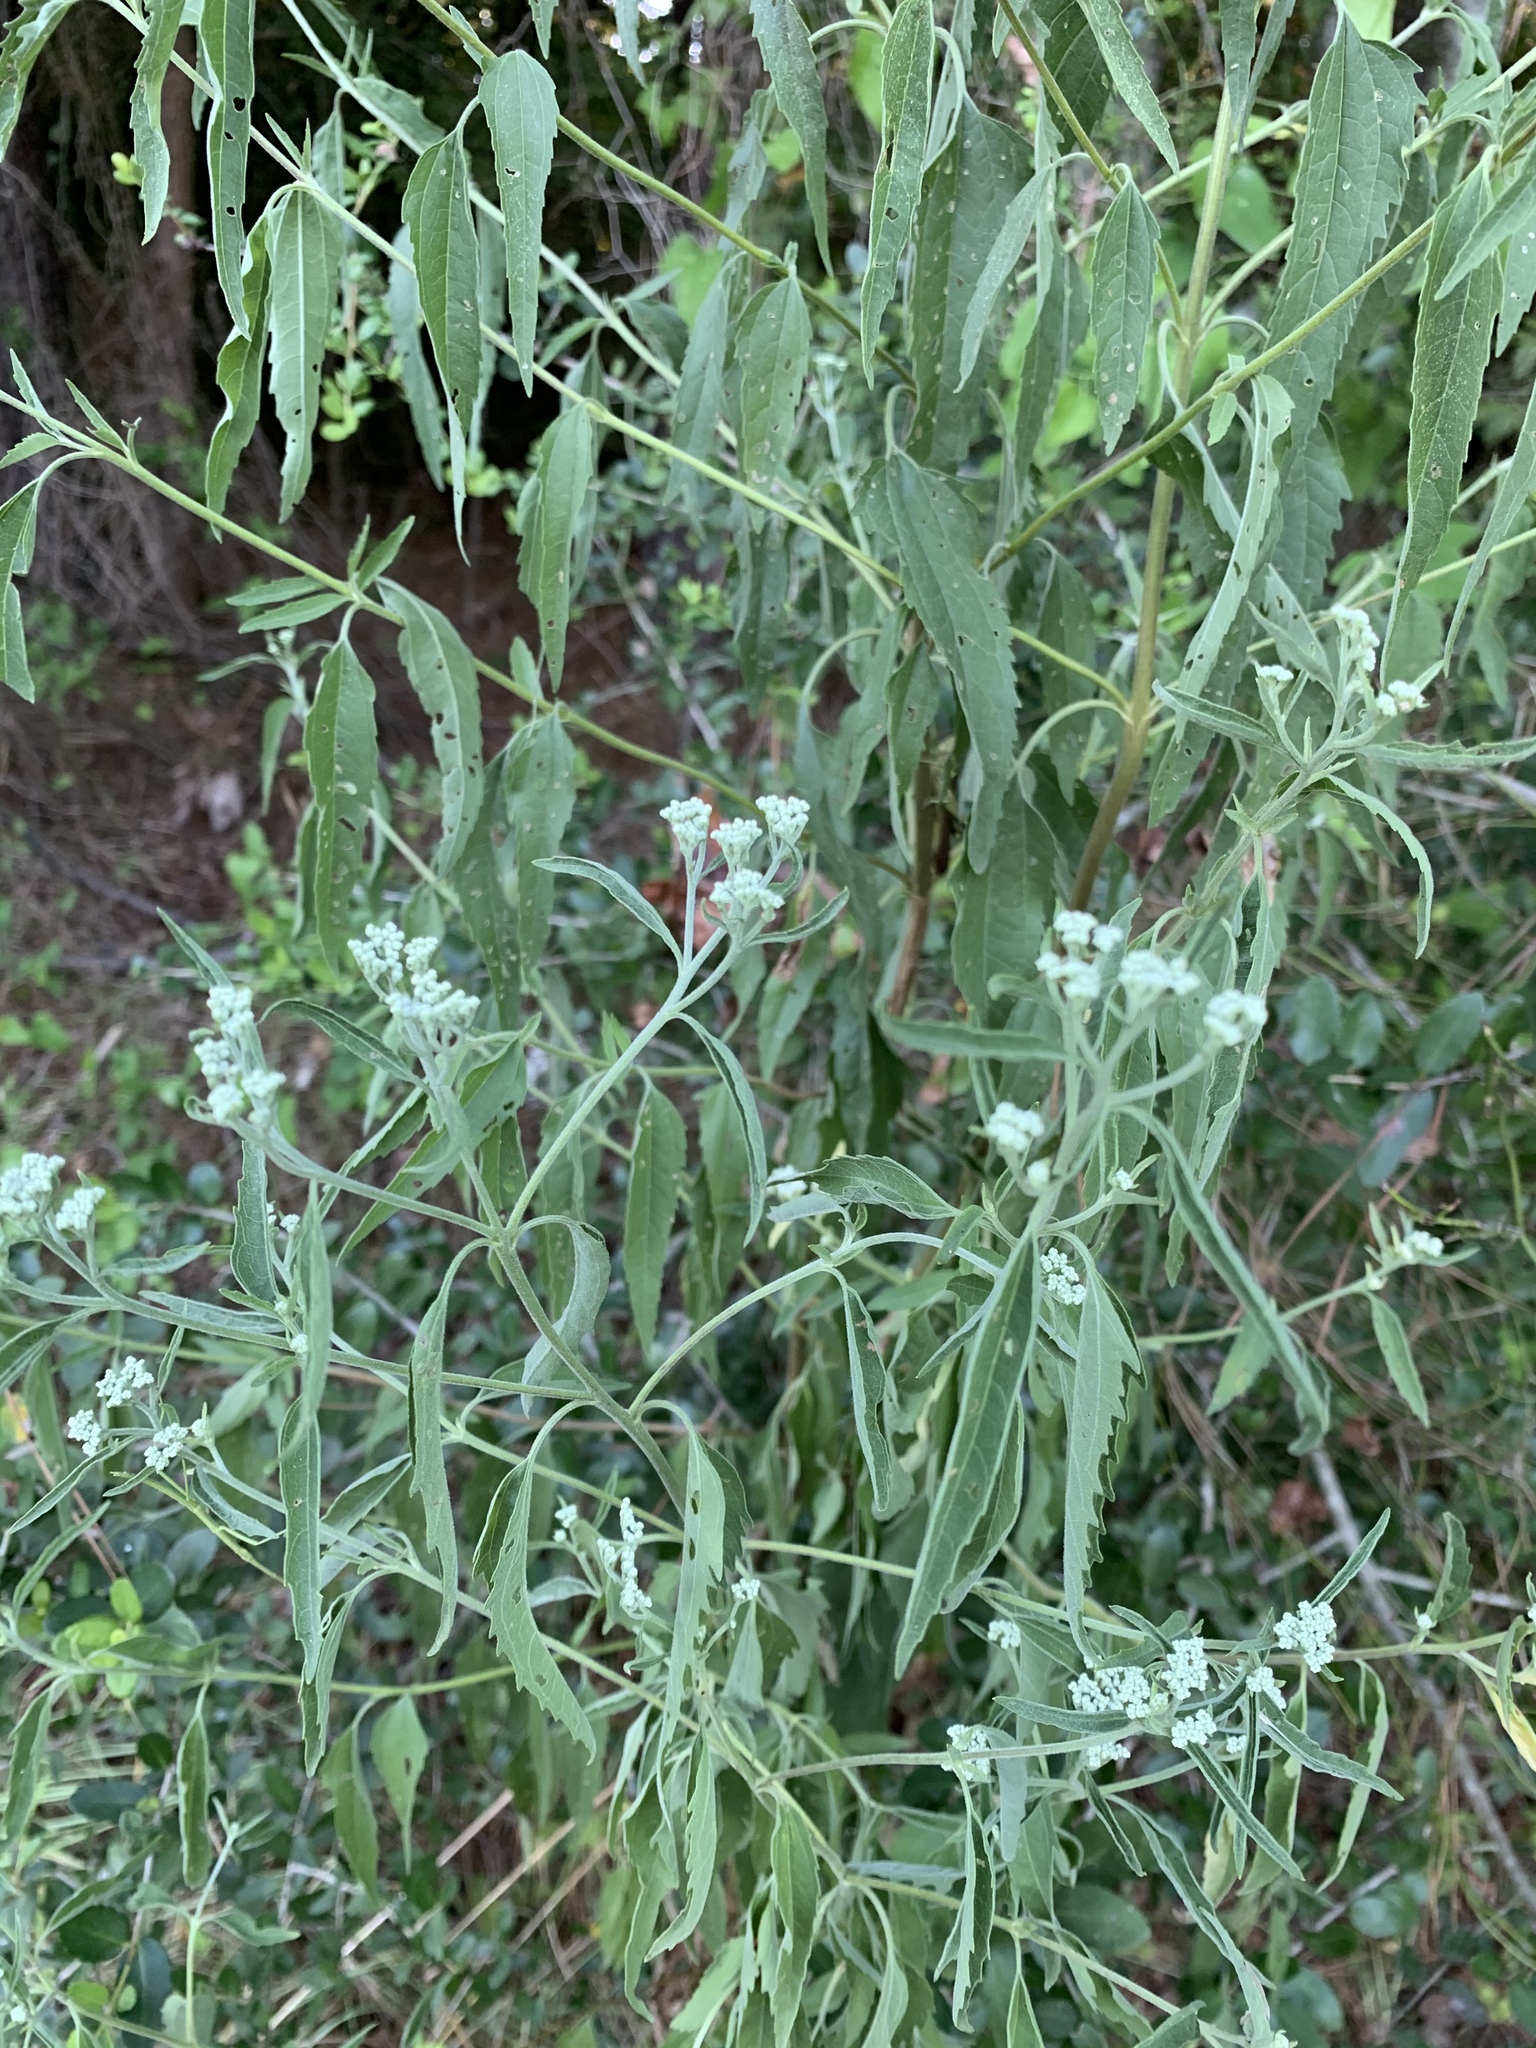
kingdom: Plantae
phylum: Tracheophyta
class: Magnoliopsida
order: Asterales
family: Asteraceae
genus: Eupatorium
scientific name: Eupatorium serotinum
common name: Late boneset
